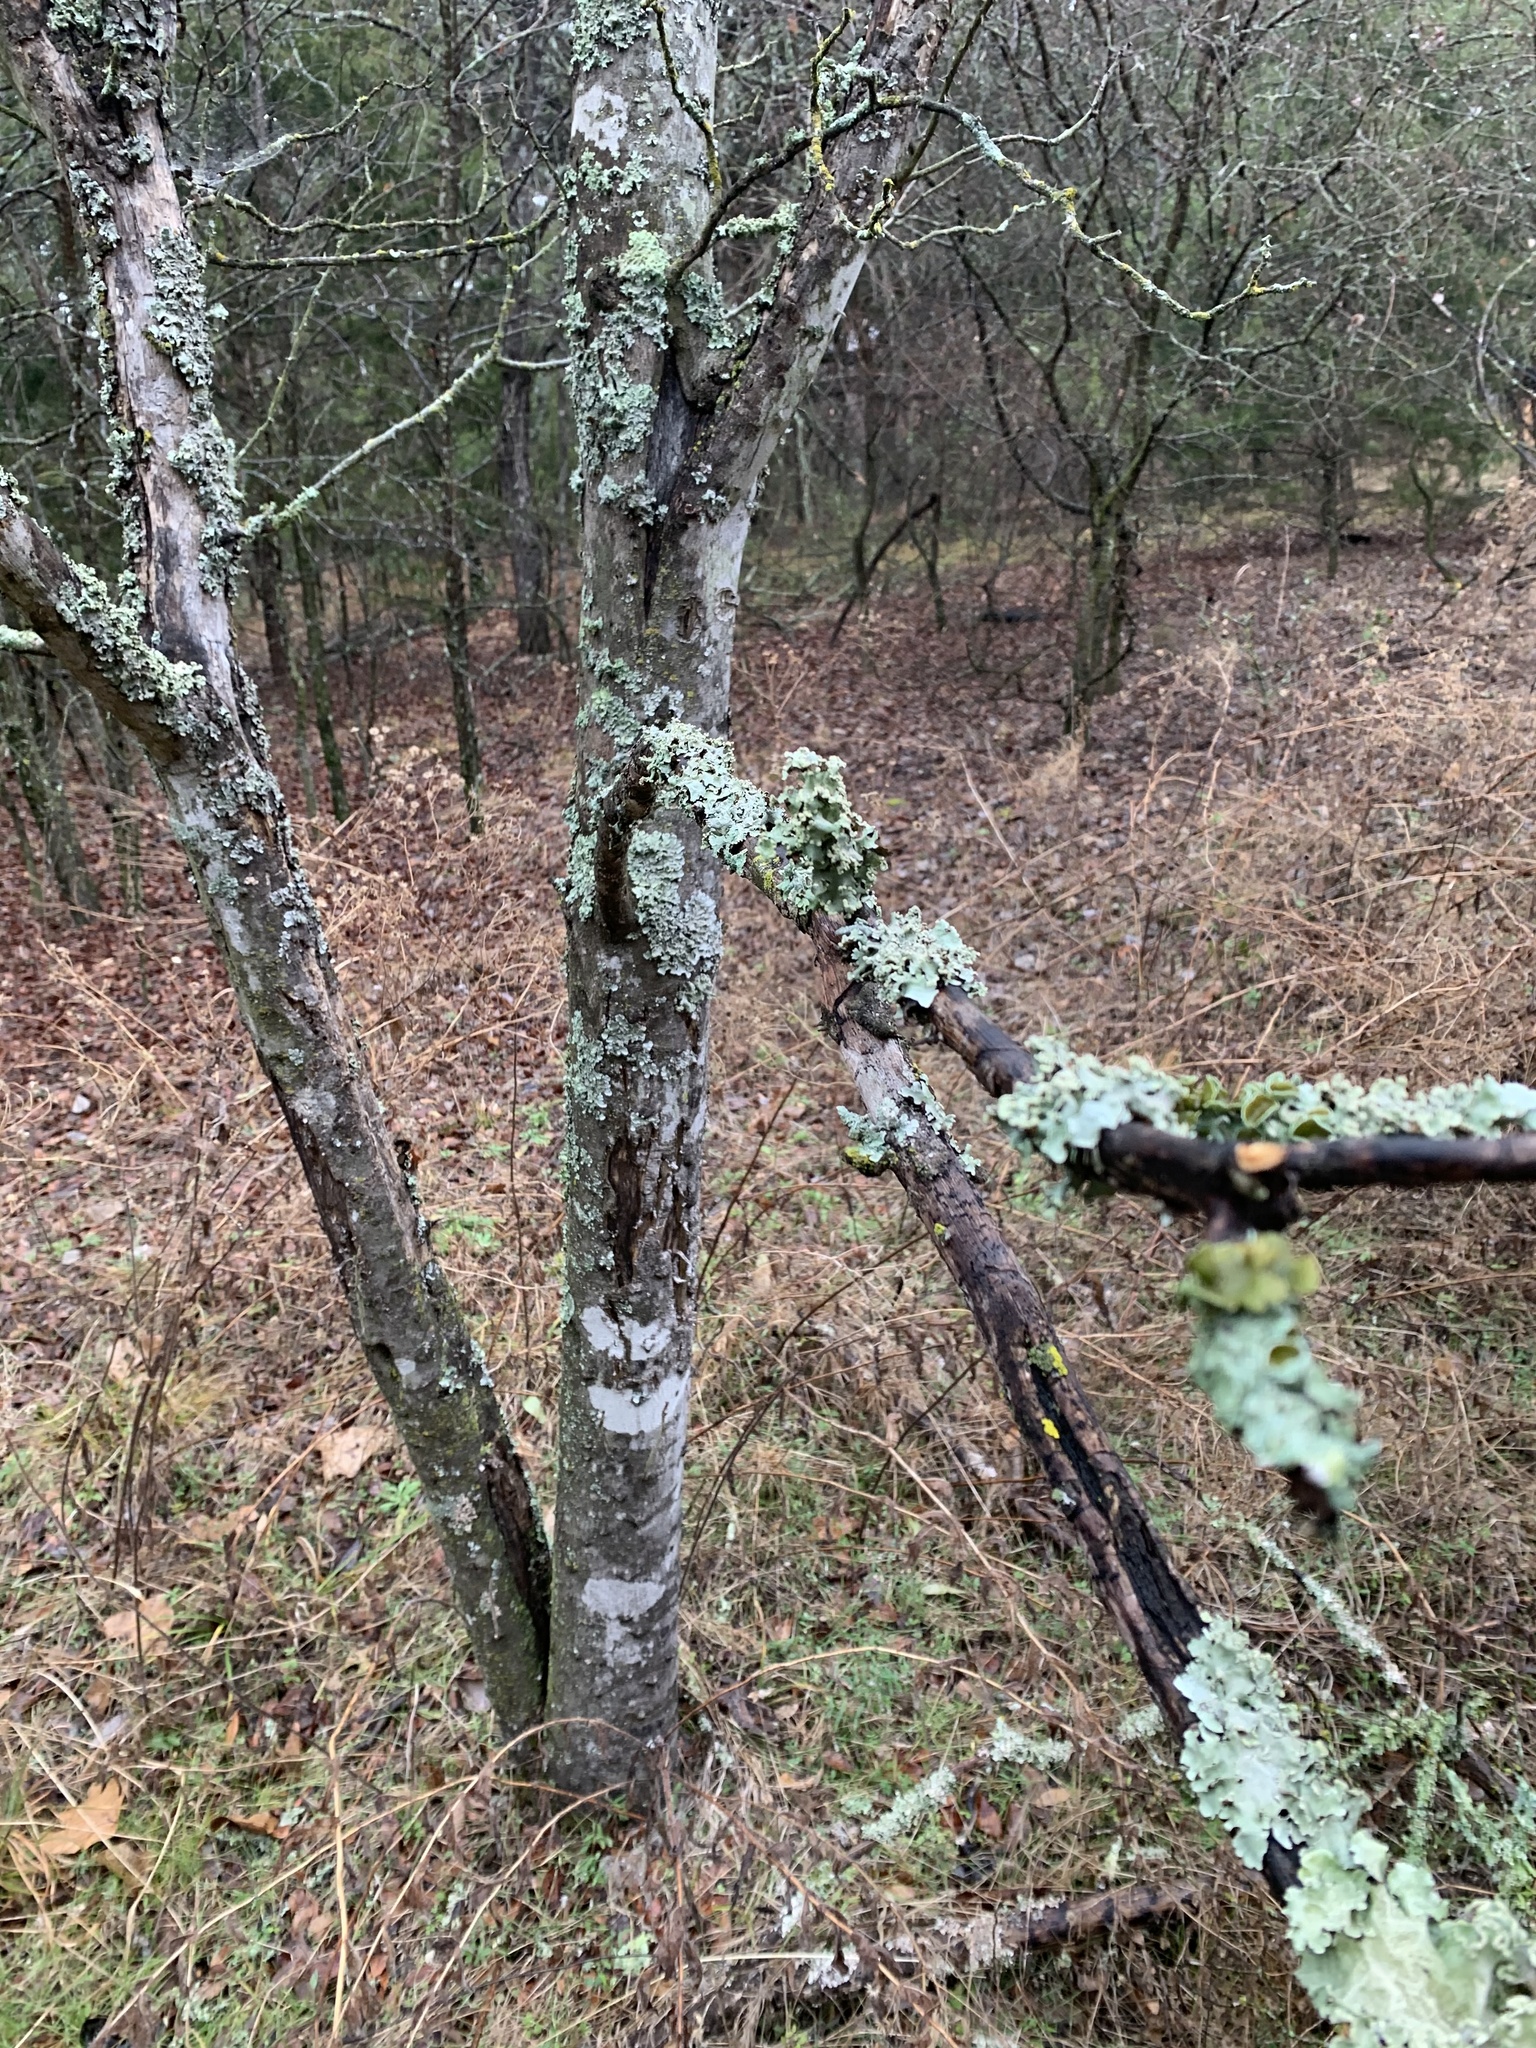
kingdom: Plantae
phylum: Tracheophyta
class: Magnoliopsida
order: Sapindales
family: Rutaceae
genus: Zanthoxylum
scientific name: Zanthoxylum clava-herculis
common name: Hercules'-club
